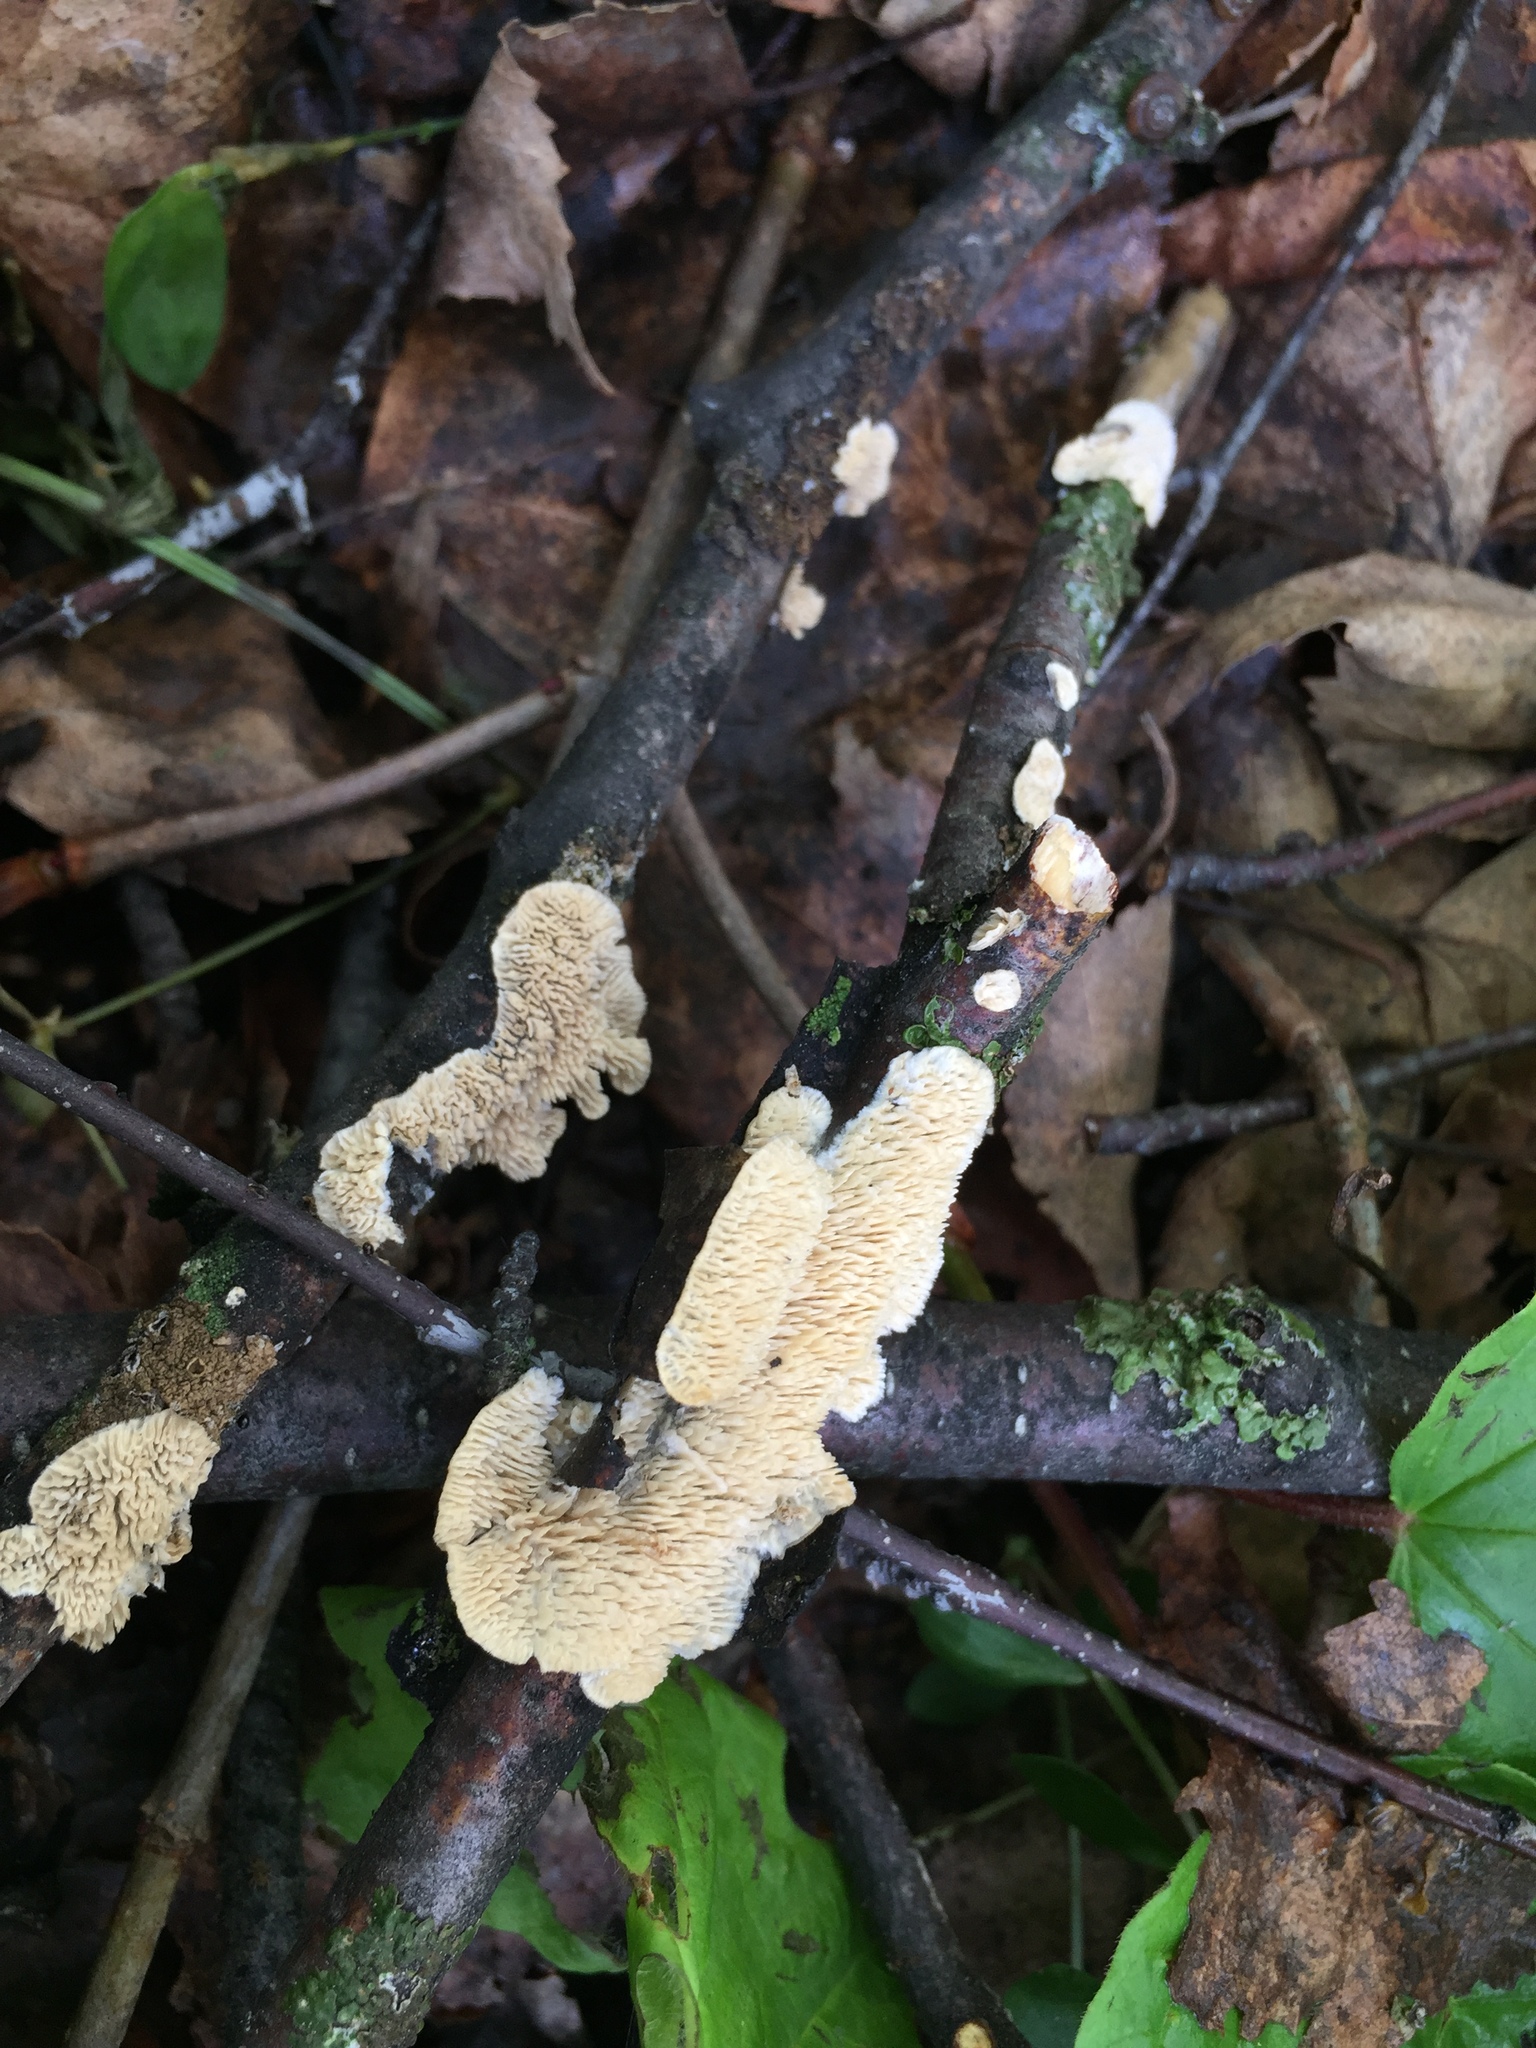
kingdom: Fungi
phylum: Basidiomycota
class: Agaricomycetes
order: Polyporales
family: Irpicaceae
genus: Irpex
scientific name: Irpex lacteus
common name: Milk-white toothed polypore
